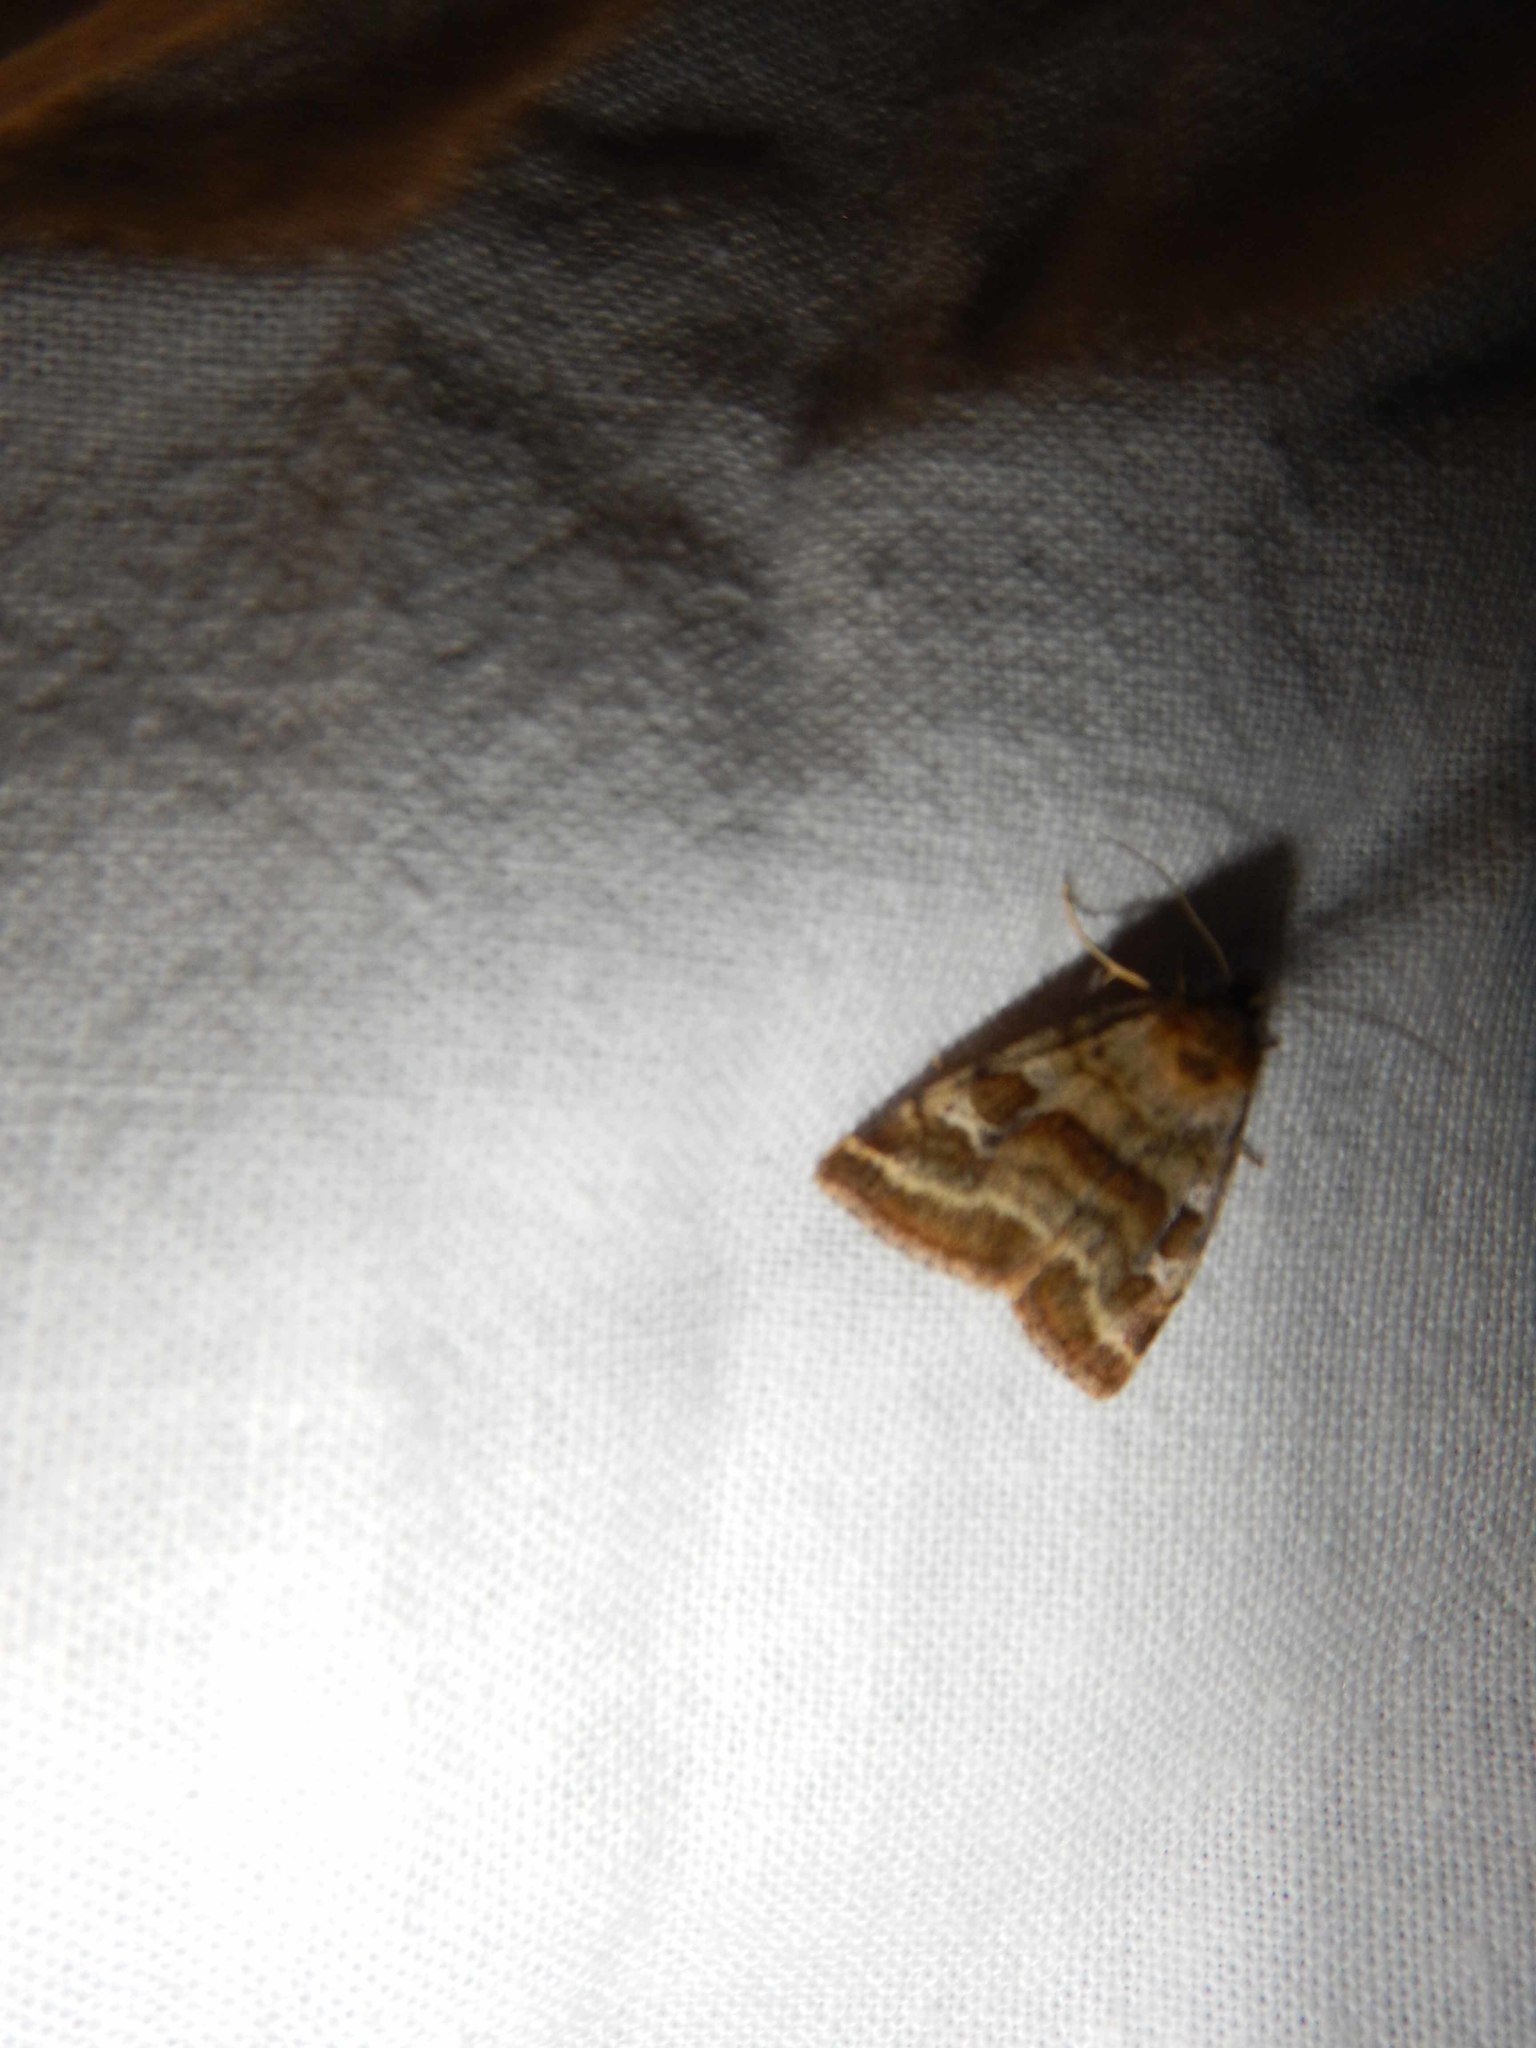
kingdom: Animalia
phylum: Arthropoda
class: Insecta
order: Lepidoptera
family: Noctuidae
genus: Synthymia
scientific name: Synthymia fixa
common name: Goldwing
